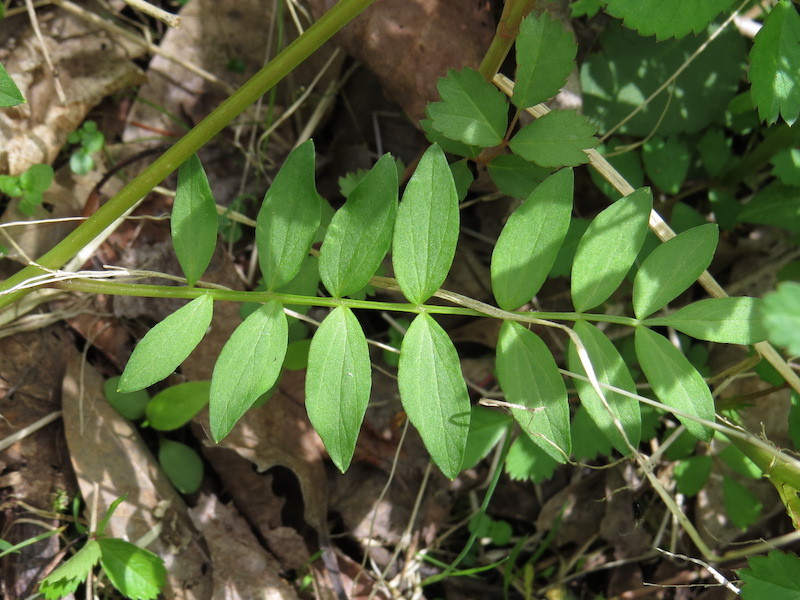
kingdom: Plantae
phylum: Tracheophyta
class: Magnoliopsida
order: Ericales
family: Polemoniaceae
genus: Polemonium
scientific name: Polemonium reptans
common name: Creeping jacob's-ladder
